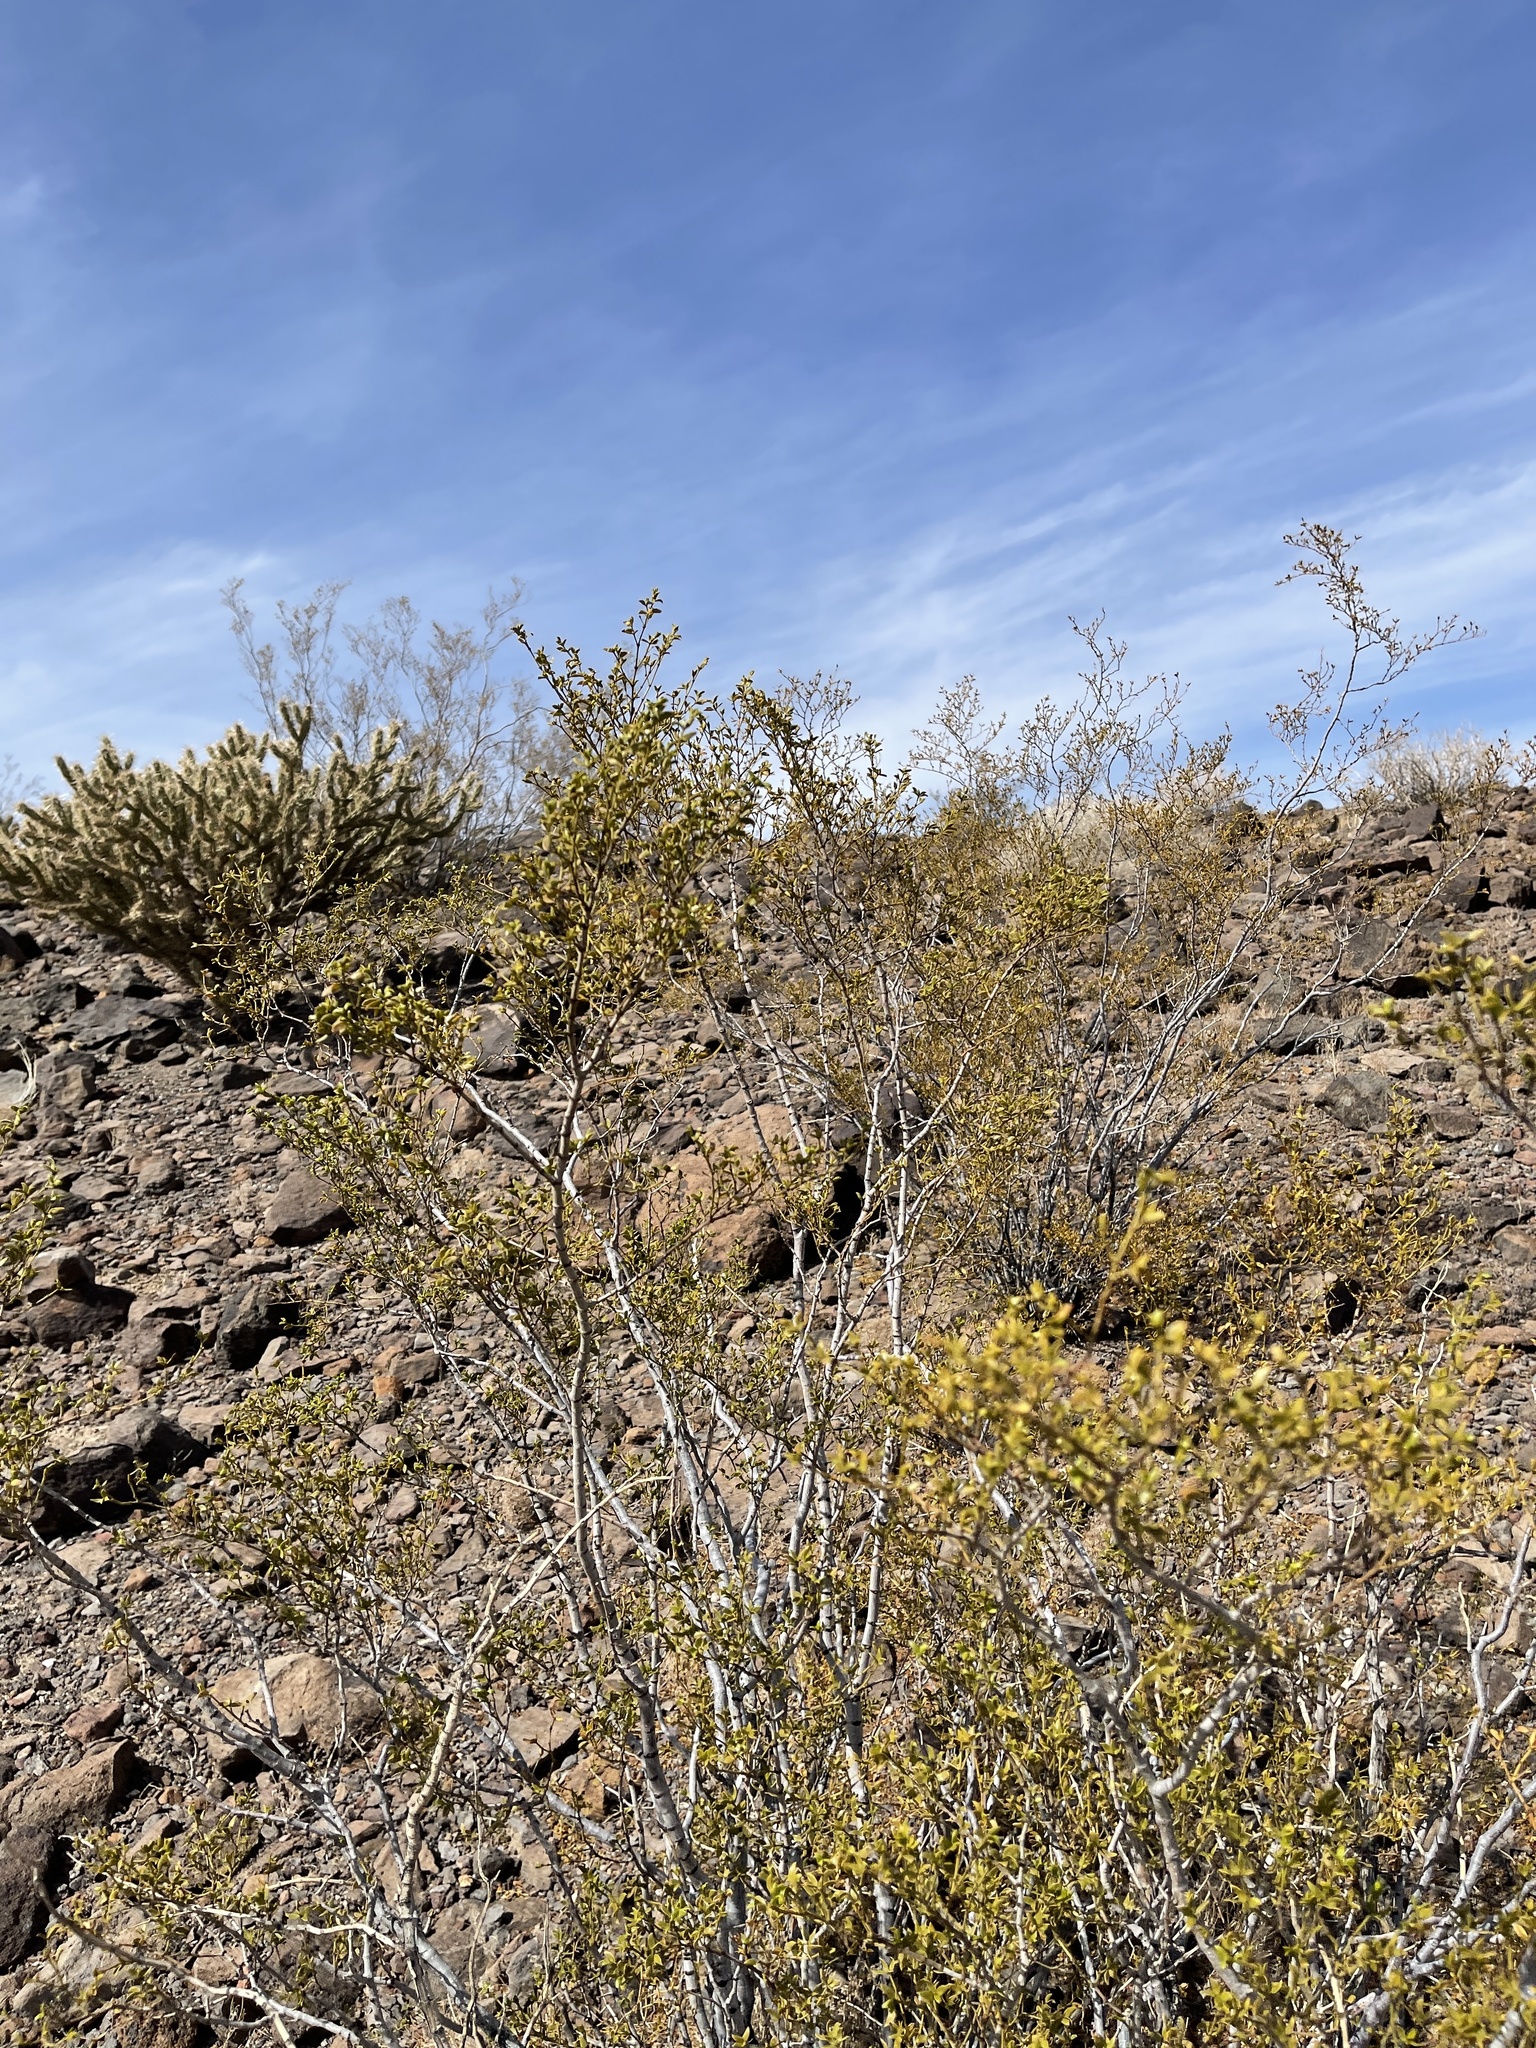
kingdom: Plantae
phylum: Tracheophyta
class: Magnoliopsida
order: Zygophyllales
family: Zygophyllaceae
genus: Larrea
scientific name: Larrea tridentata
